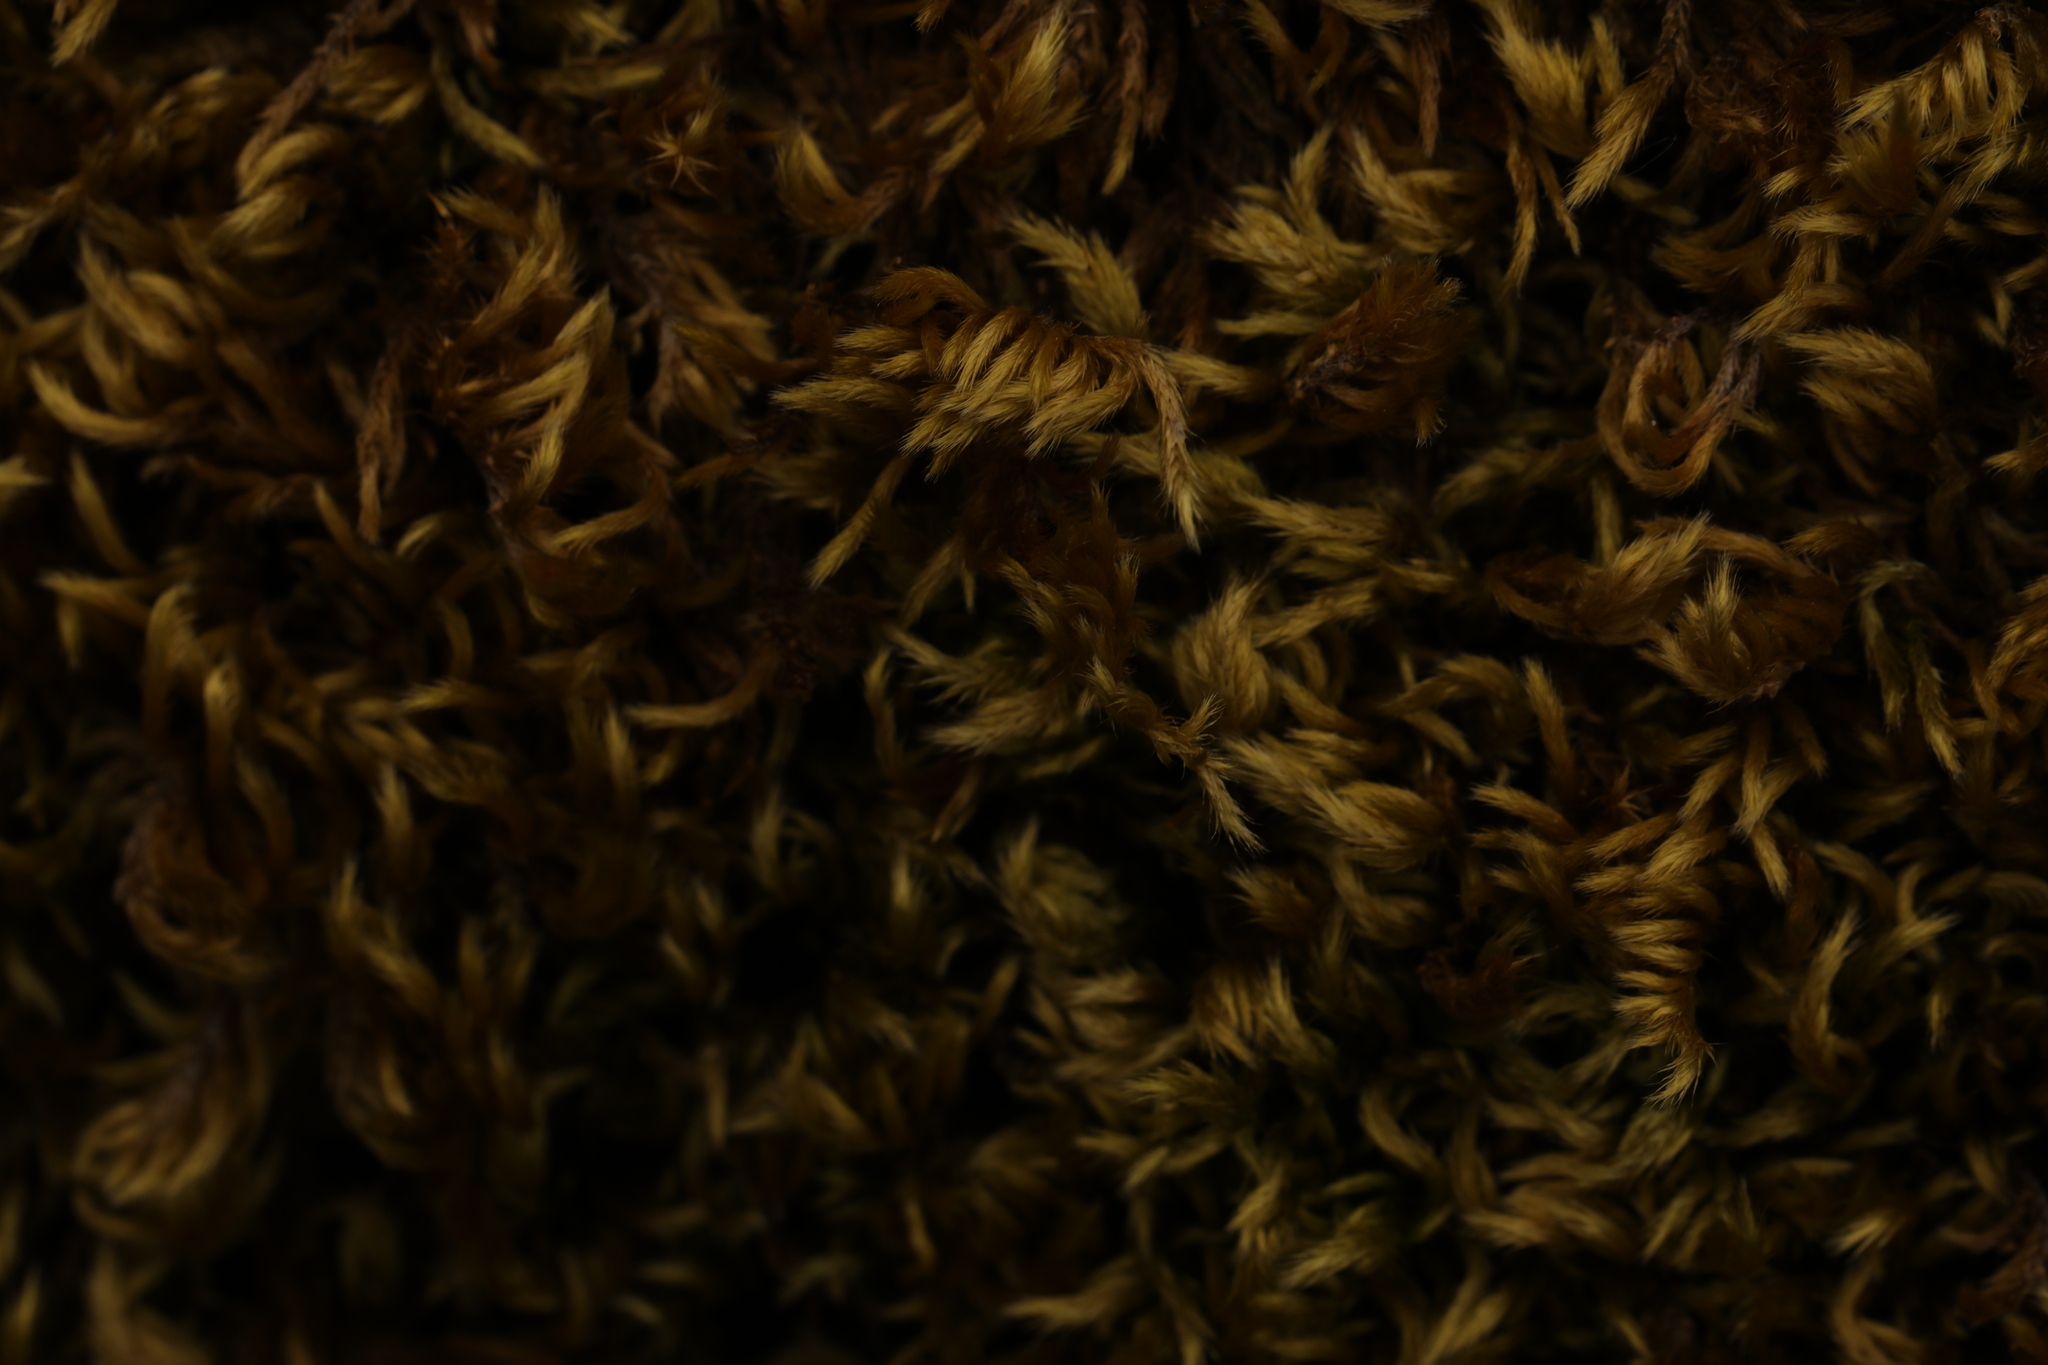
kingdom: Plantae
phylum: Bryophyta
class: Bryopsida
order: Hypnales
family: Brachytheciaceae
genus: Homalothecium
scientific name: Homalothecium sericeum
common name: Silky wall feather-moss
